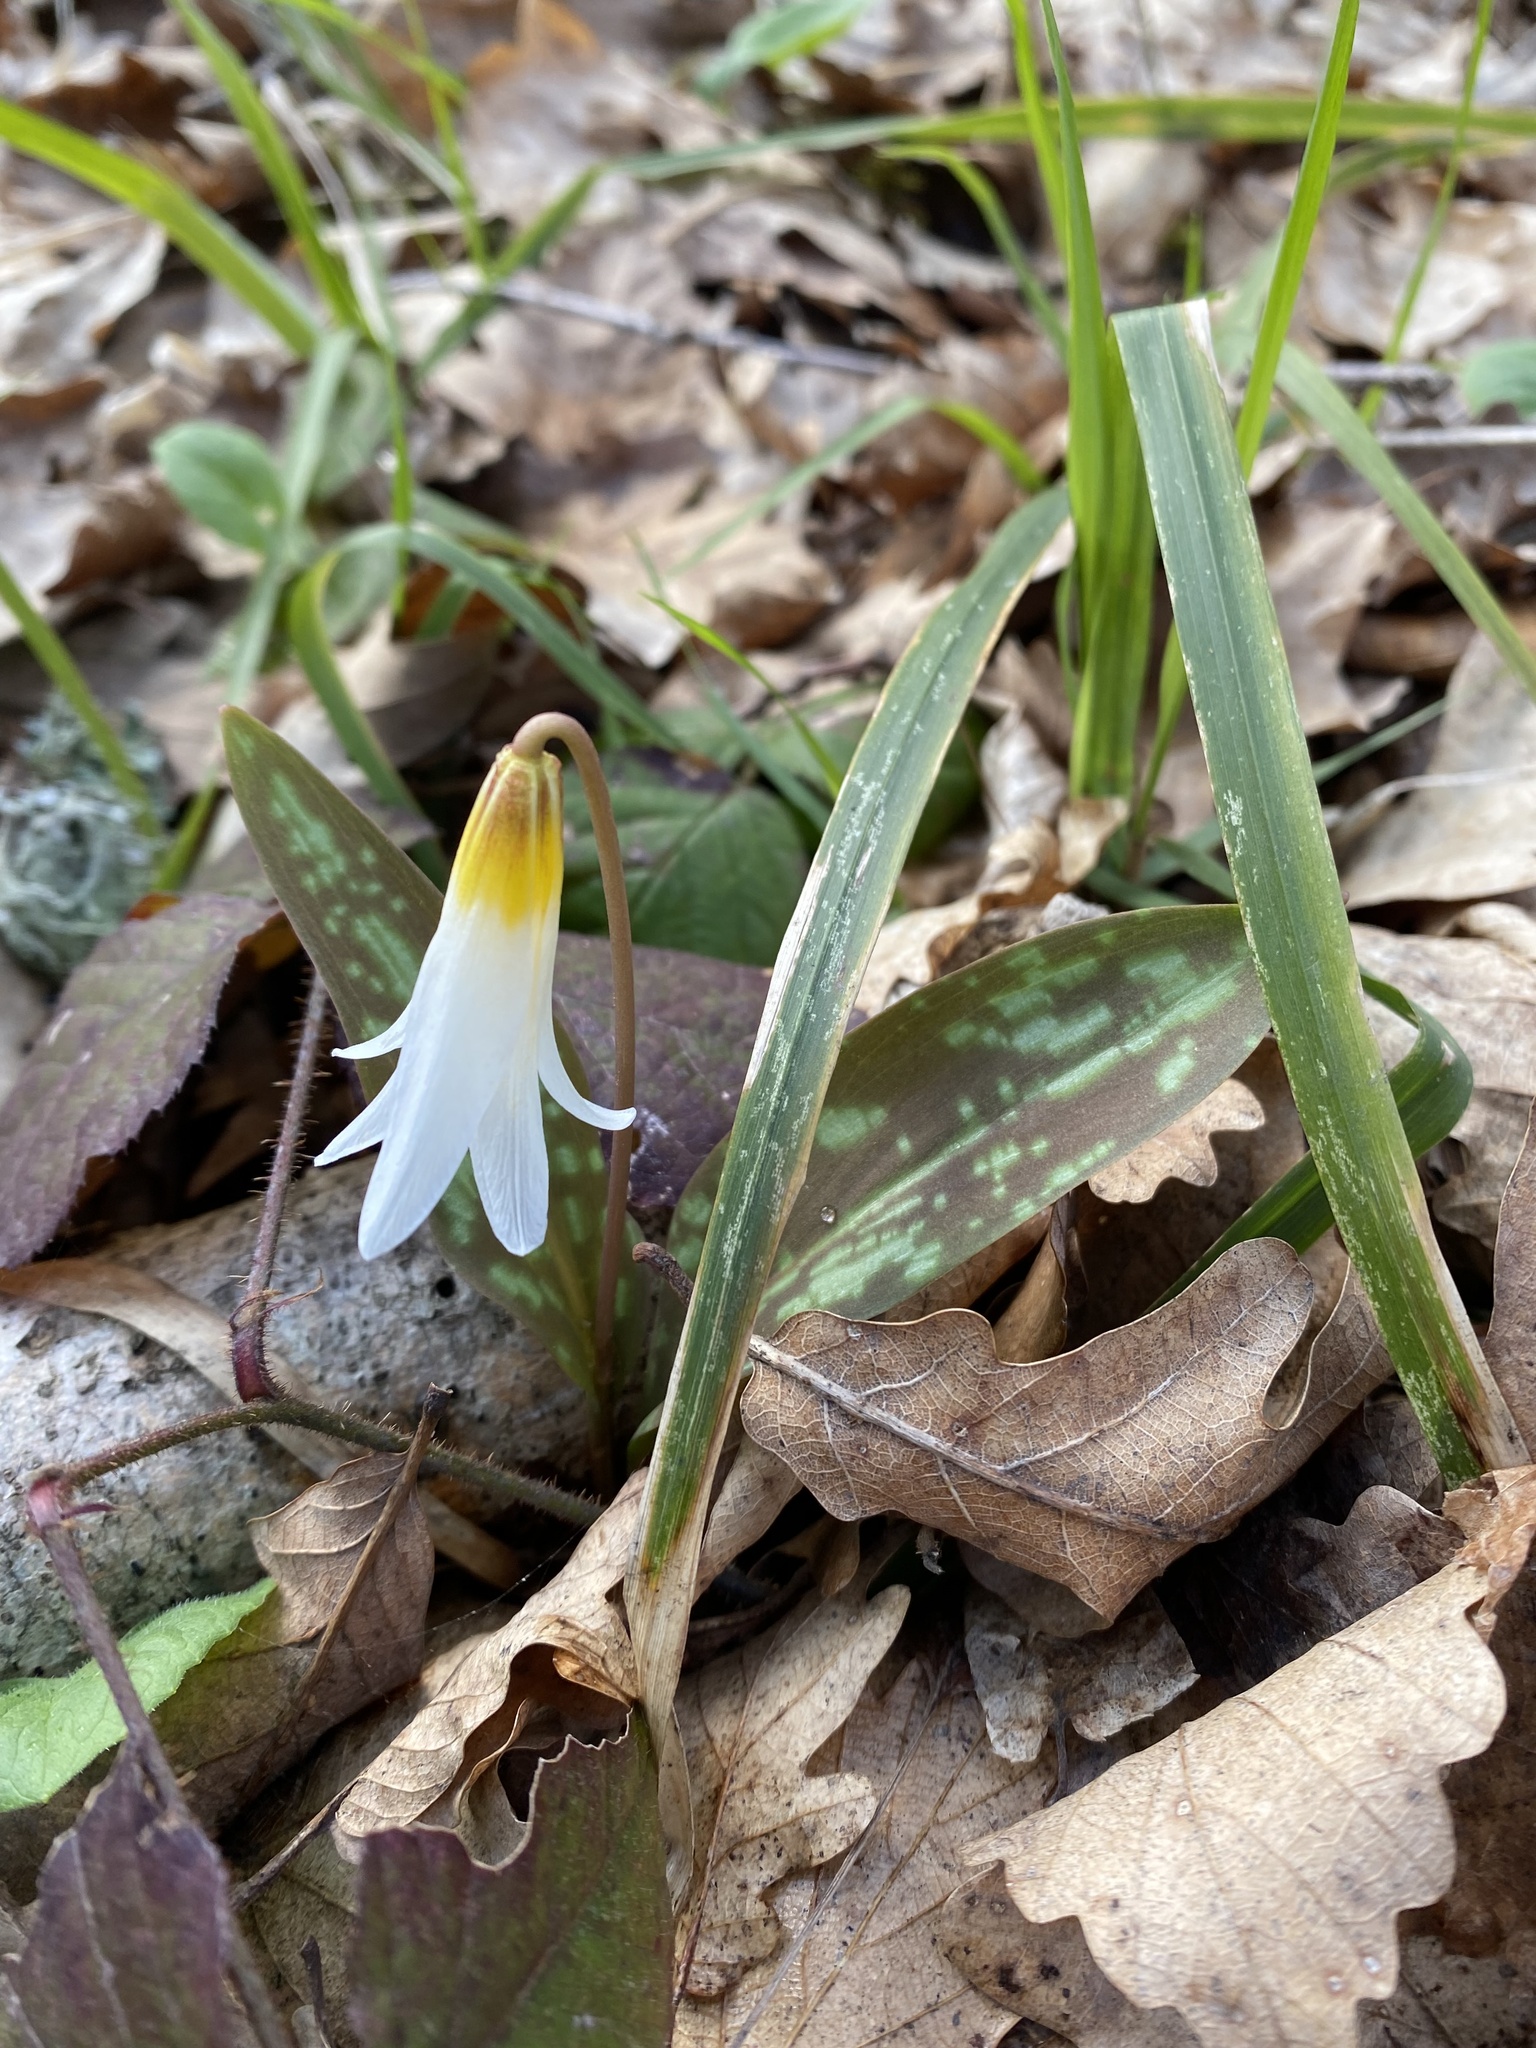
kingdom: Plantae
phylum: Tracheophyta
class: Liliopsida
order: Liliales
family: Liliaceae
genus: Erythronium
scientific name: Erythronium caucasicum
